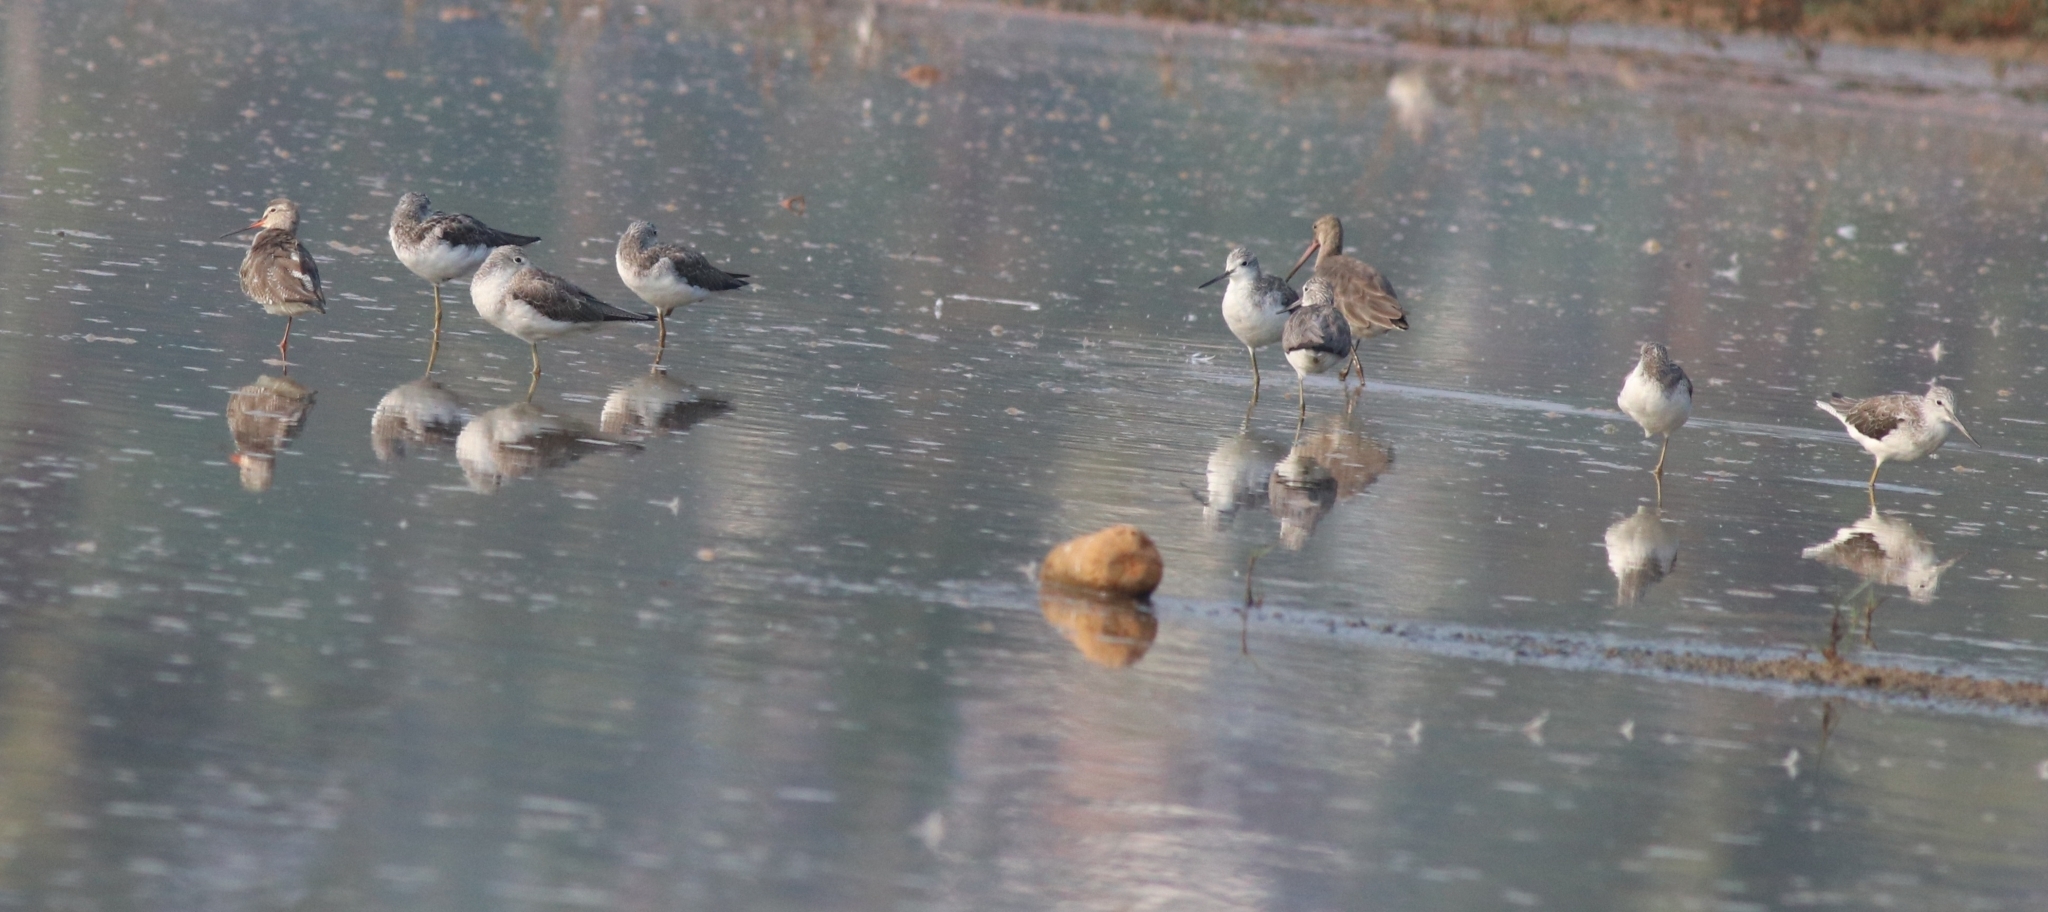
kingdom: Animalia
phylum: Chordata
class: Aves
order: Charadriiformes
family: Scolopacidae
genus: Tringa
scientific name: Tringa nebularia
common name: Common greenshank
